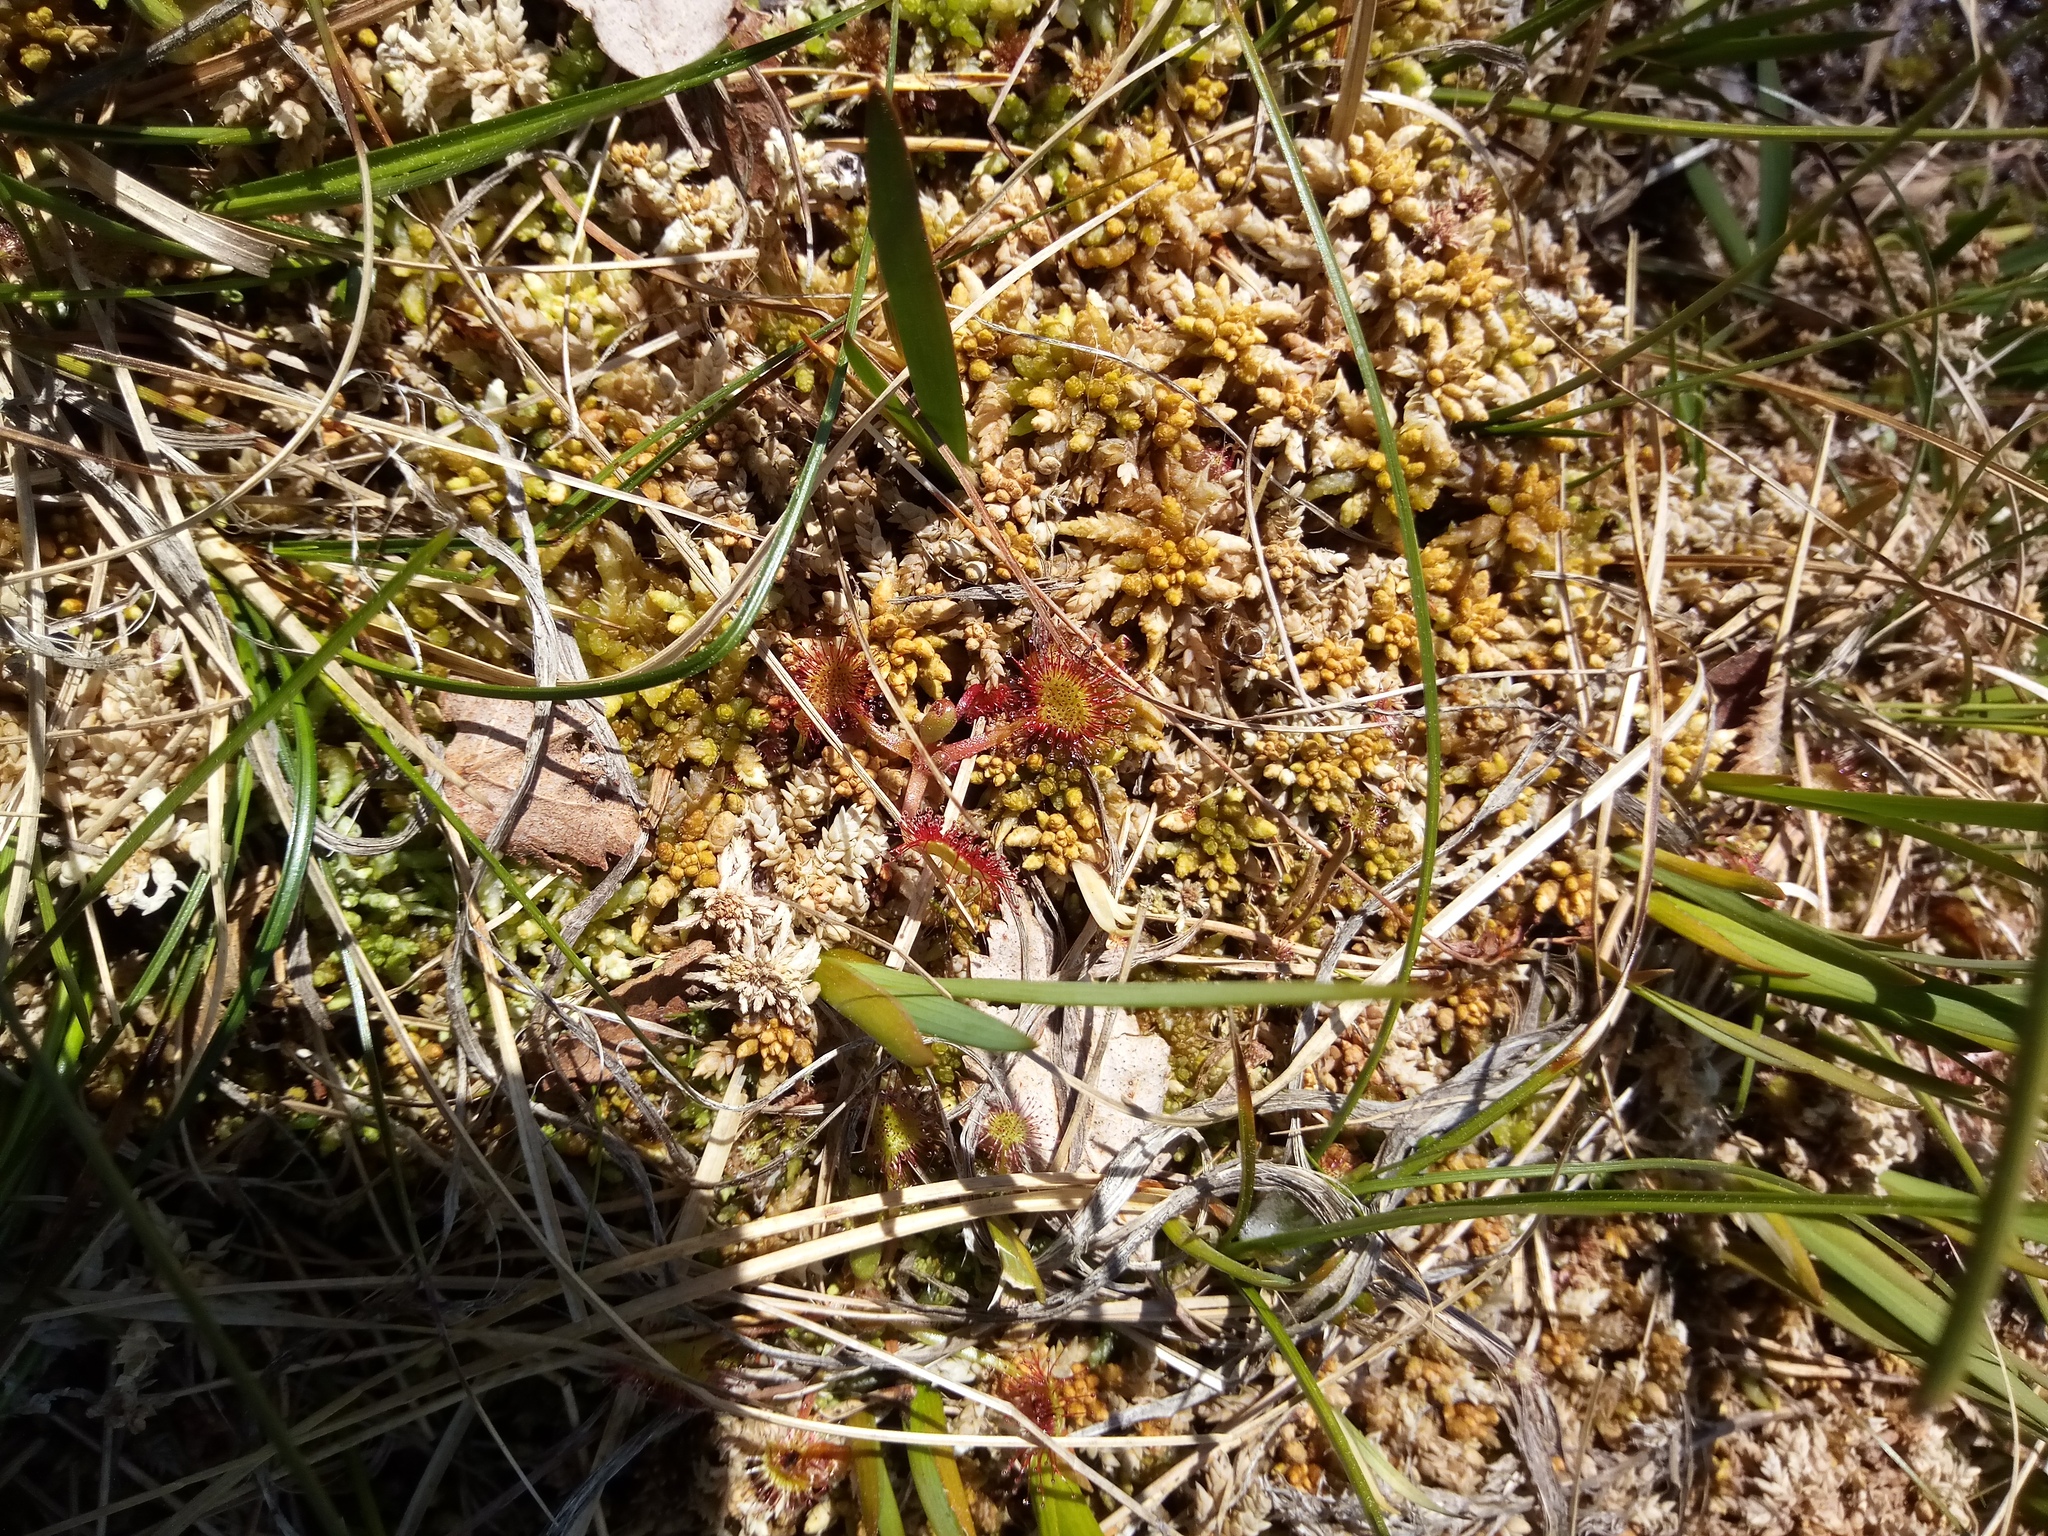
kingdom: Plantae
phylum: Tracheophyta
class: Magnoliopsida
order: Caryophyllales
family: Droseraceae
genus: Drosera
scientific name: Drosera rotundifolia
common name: Round-leaved sundew
